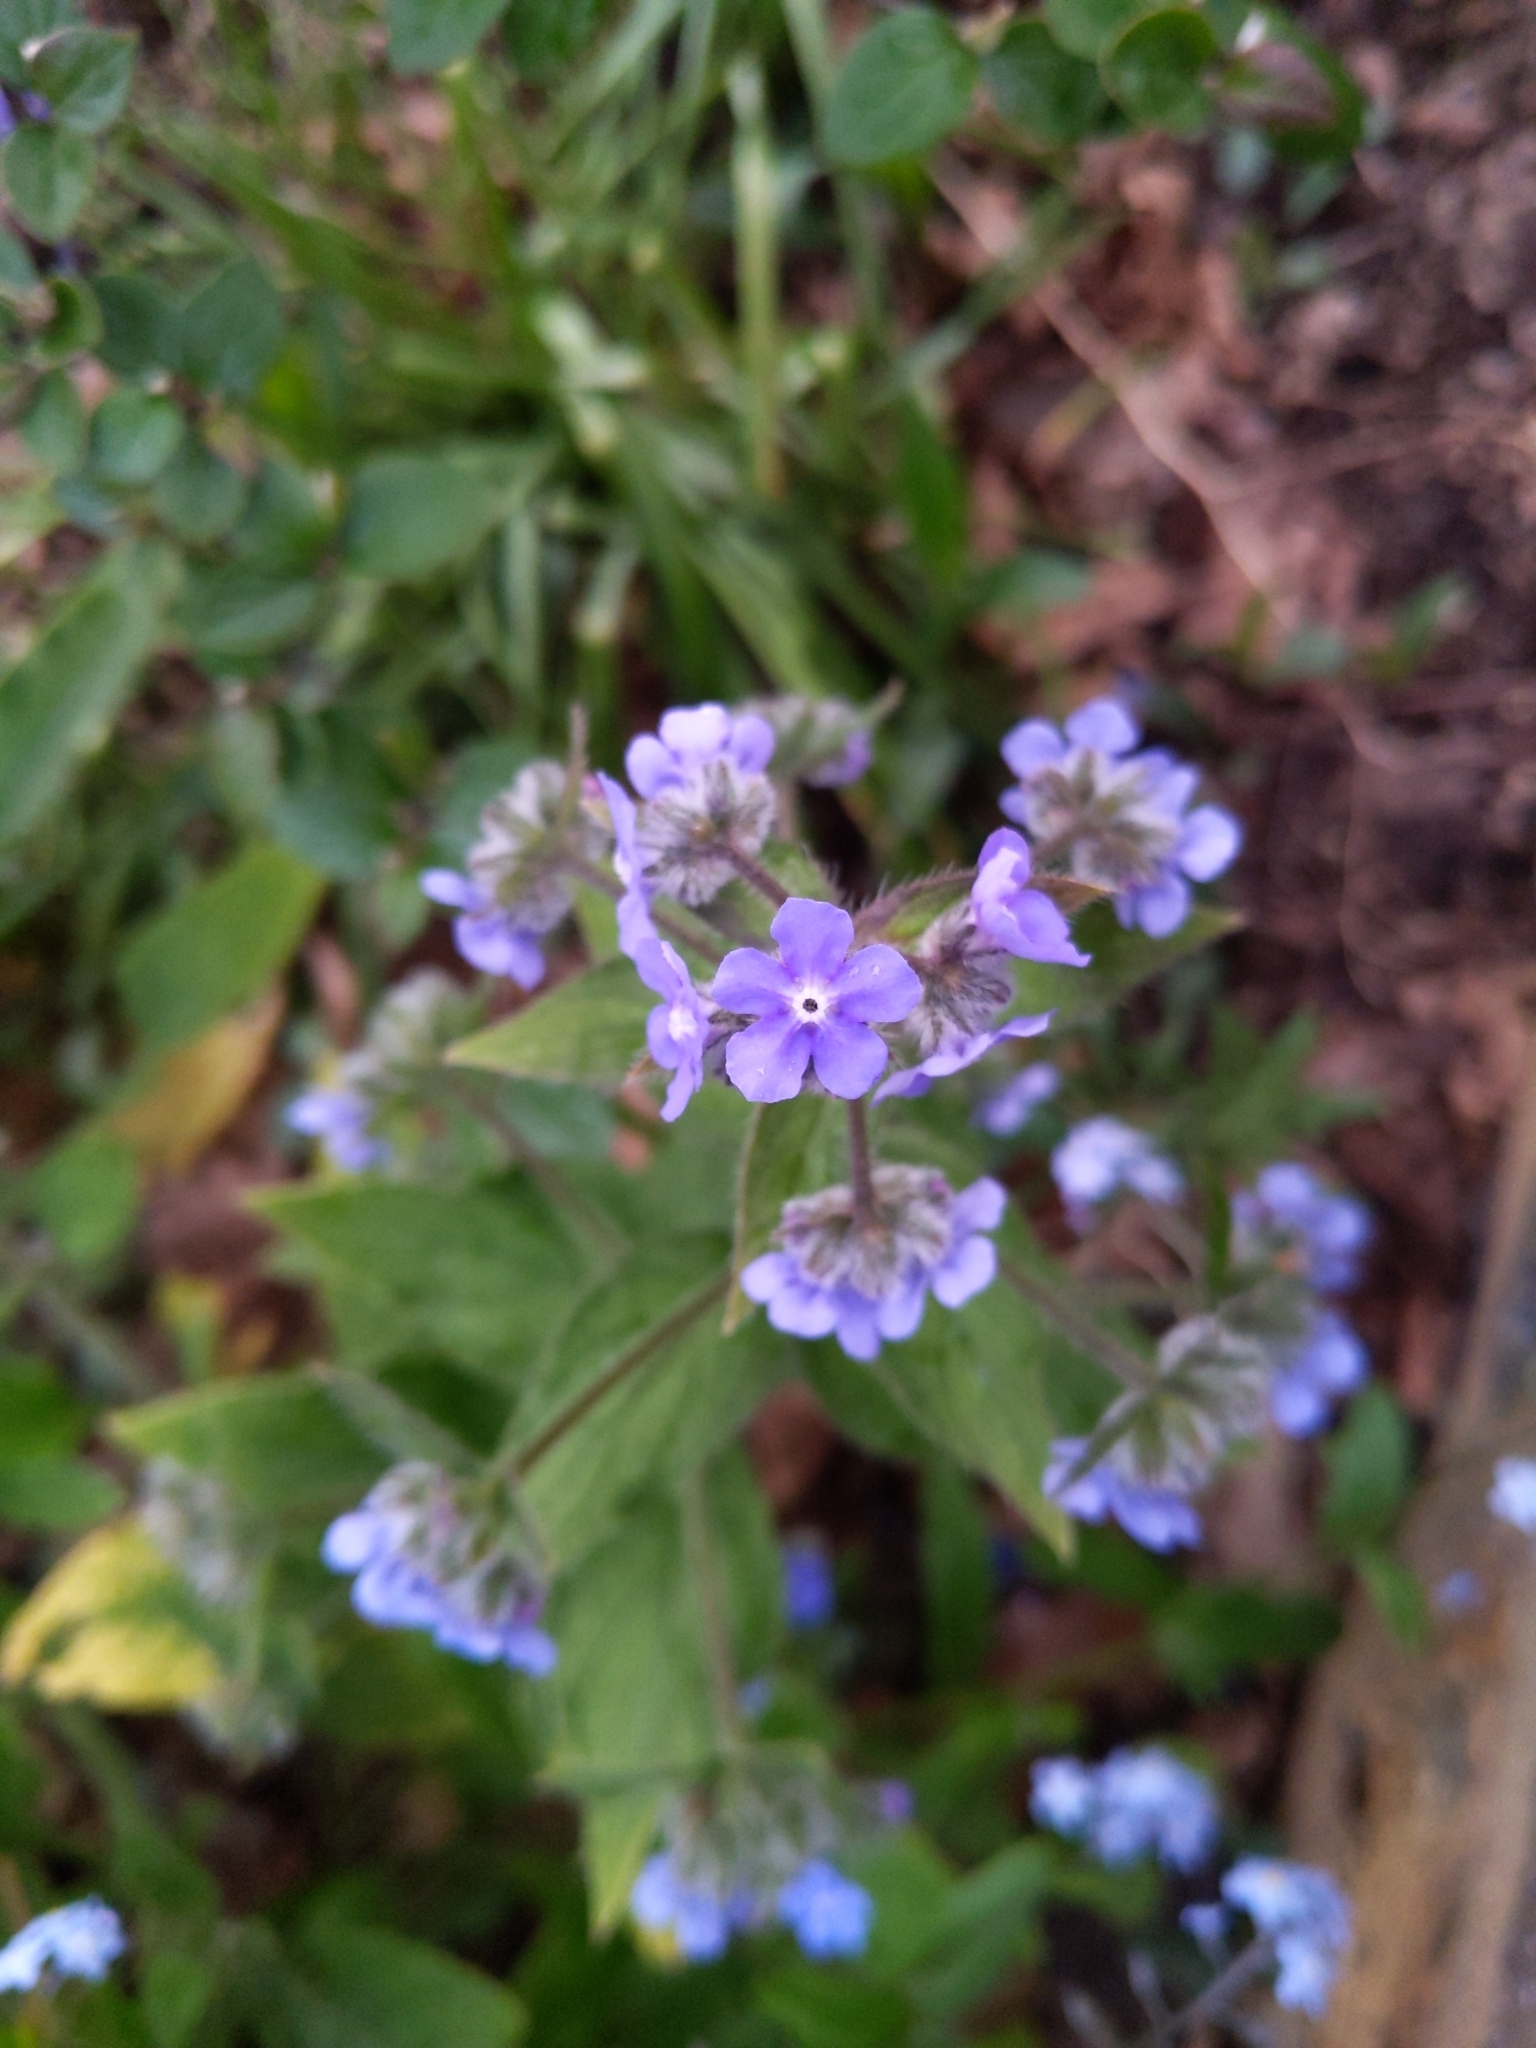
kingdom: Plantae
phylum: Tracheophyta
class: Magnoliopsida
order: Boraginales
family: Boraginaceae
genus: Pentaglottis
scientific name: Pentaglottis sempervirens
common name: Green alkanet
